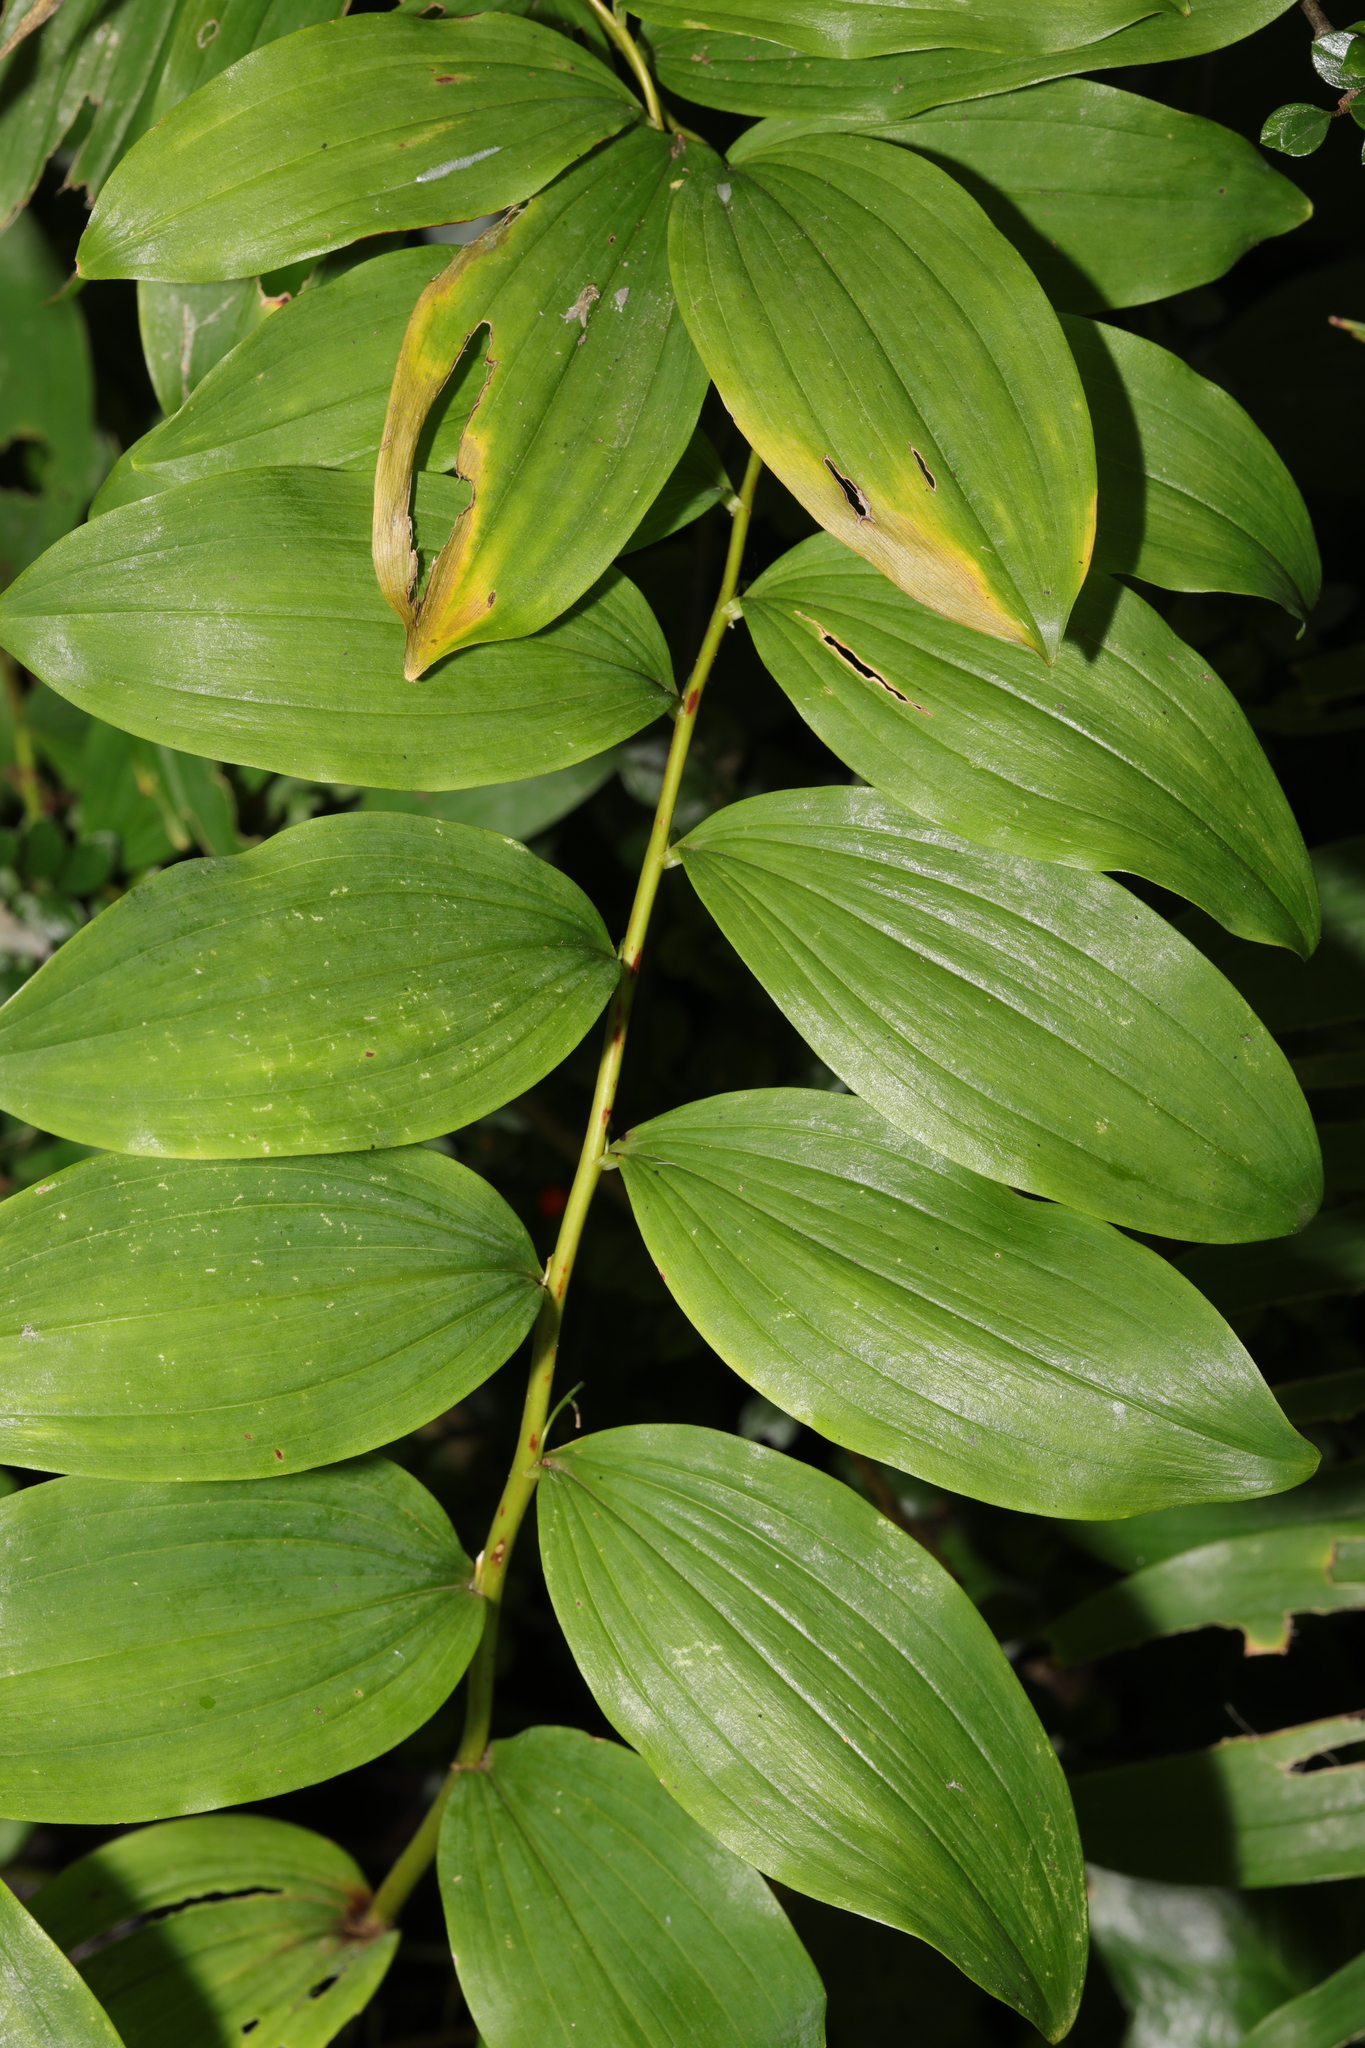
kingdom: Plantae
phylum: Tracheophyta
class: Liliopsida
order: Asparagales
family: Asparagaceae
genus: Polygonatum
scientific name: Polygonatum multiflorum
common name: Solomon's-seal
